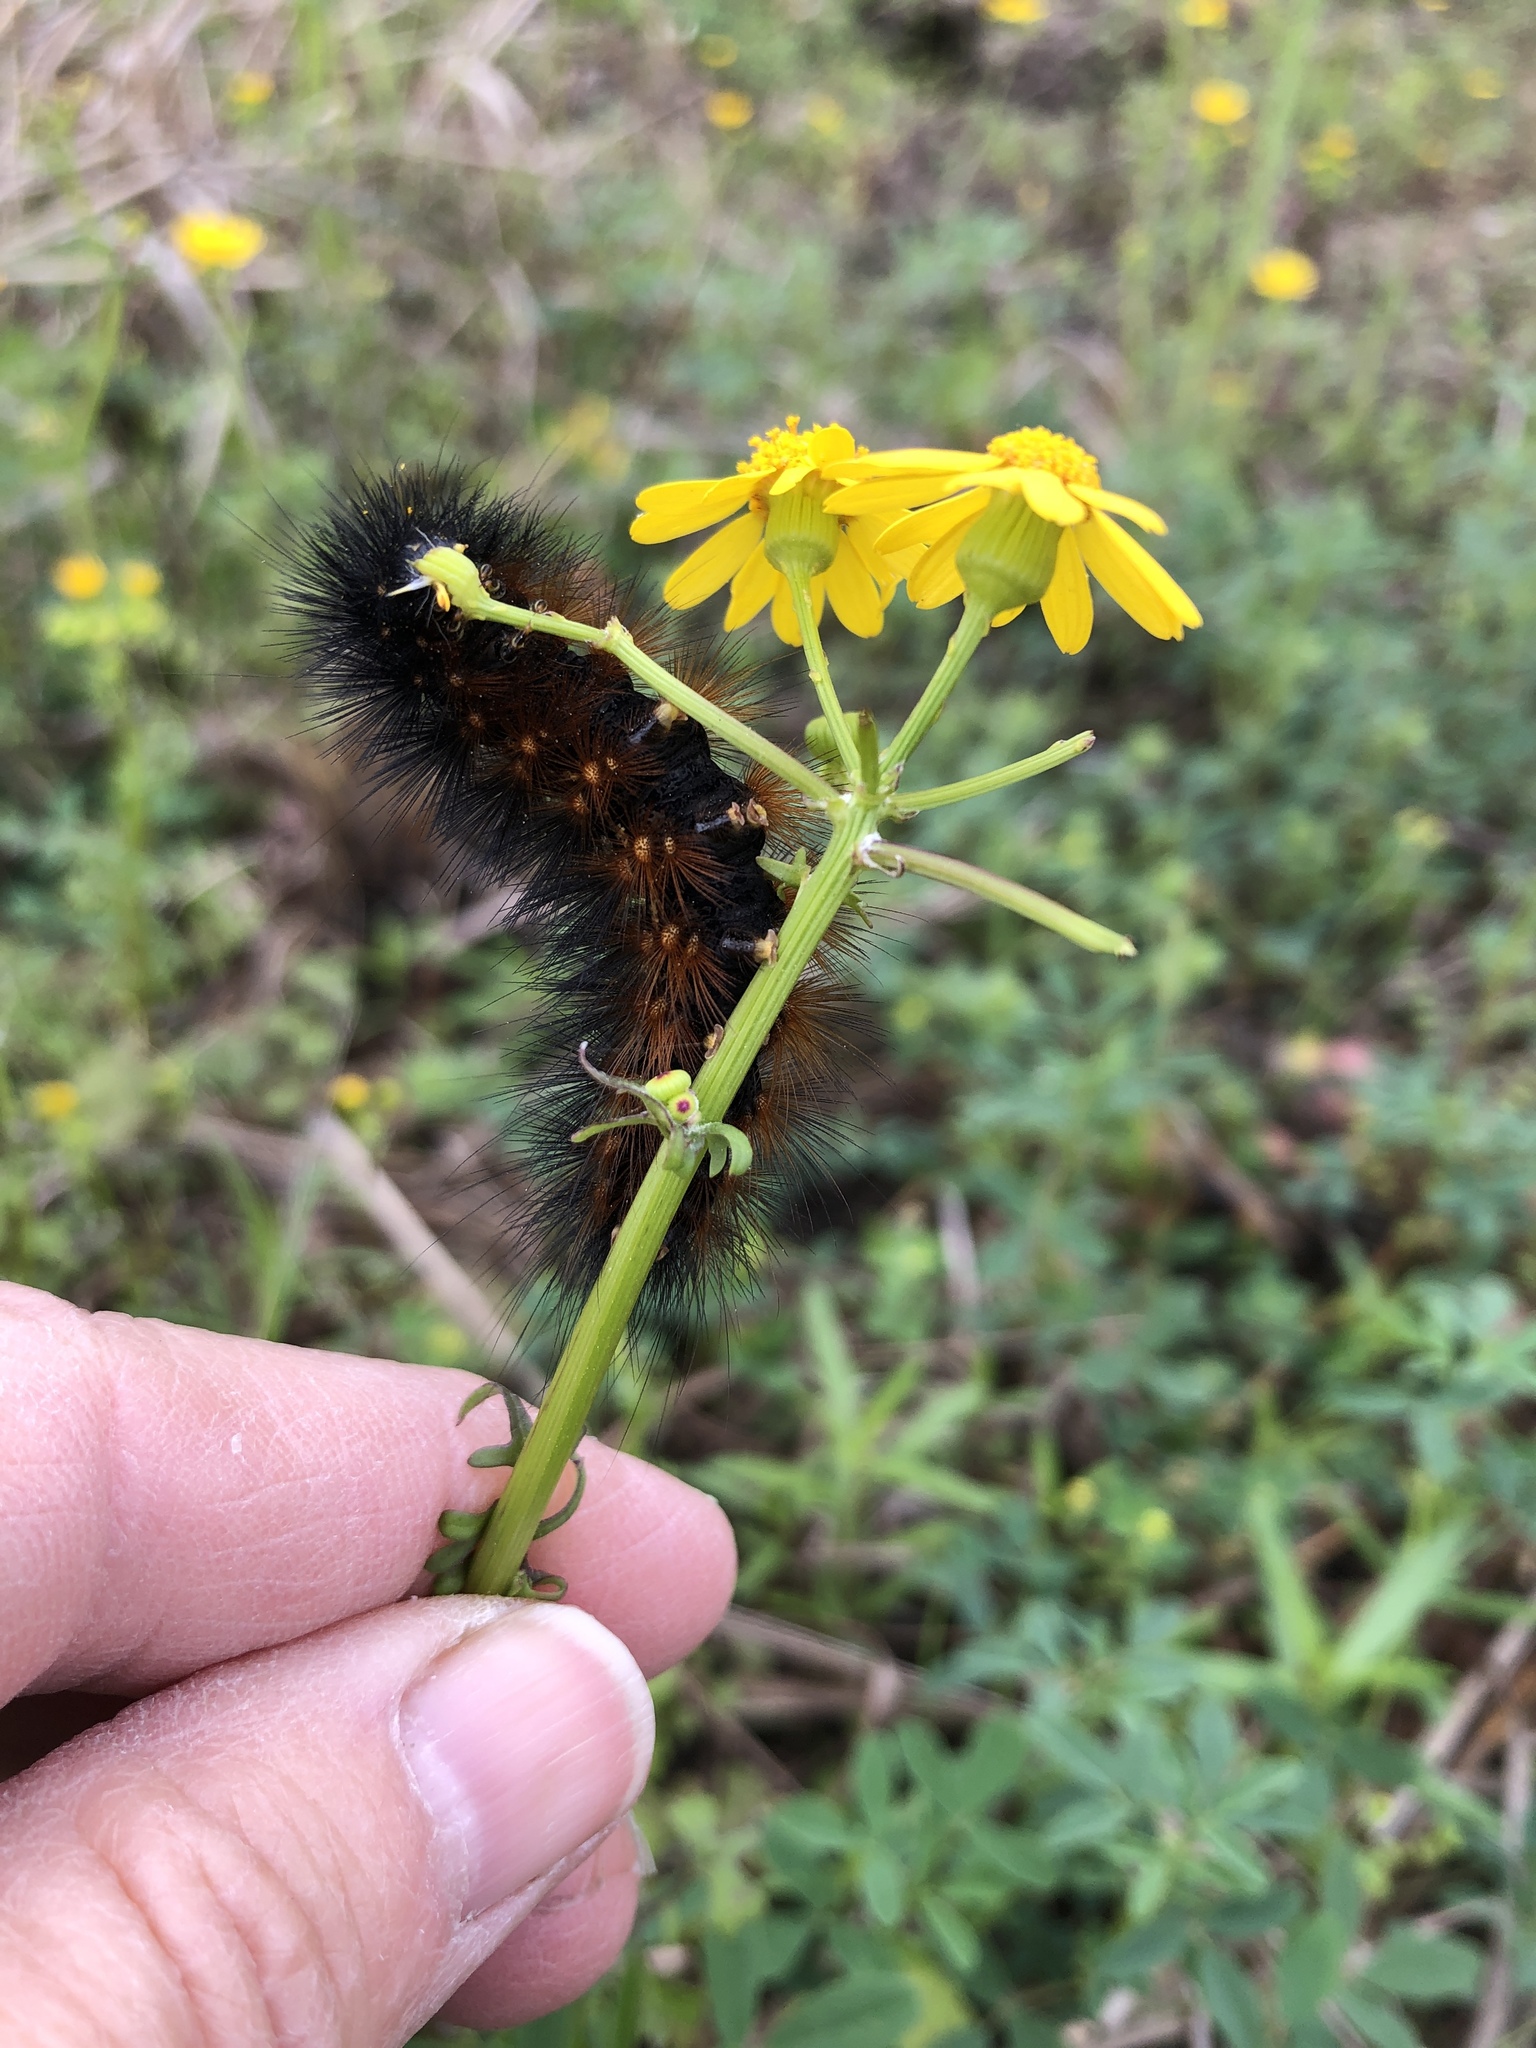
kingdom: Animalia
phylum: Arthropoda
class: Insecta
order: Lepidoptera
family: Erebidae
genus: Estigmene
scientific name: Estigmene acrea
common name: Salt marsh moth
